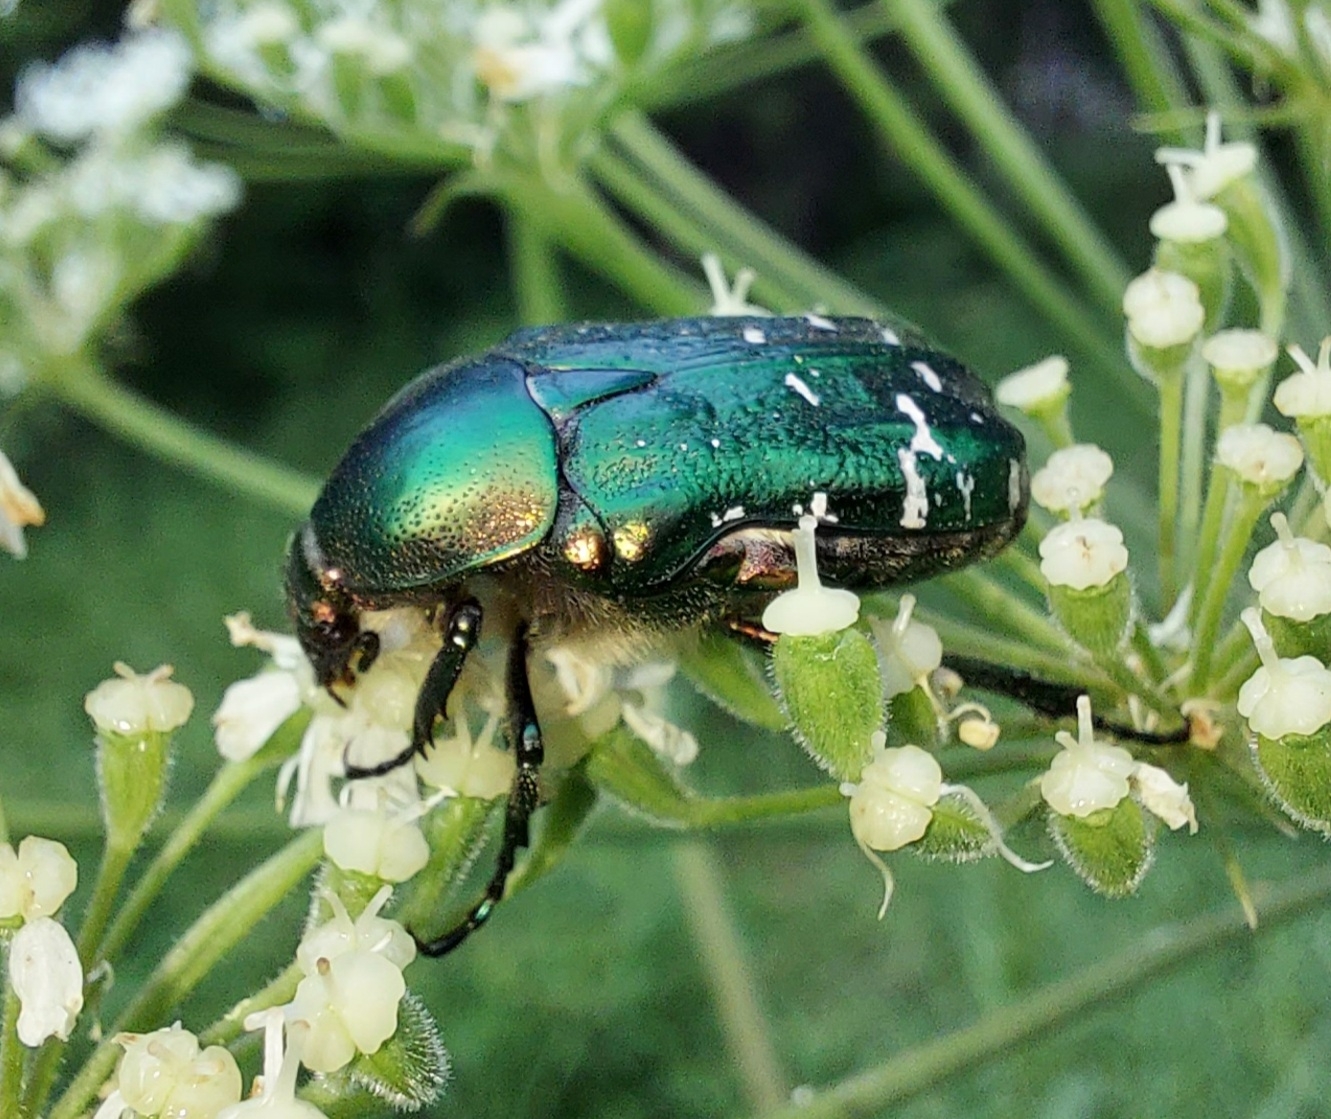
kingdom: Animalia
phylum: Arthropoda
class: Insecta
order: Coleoptera
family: Scarabaeidae
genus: Cetonia
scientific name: Cetonia aurata
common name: Rose chafer
